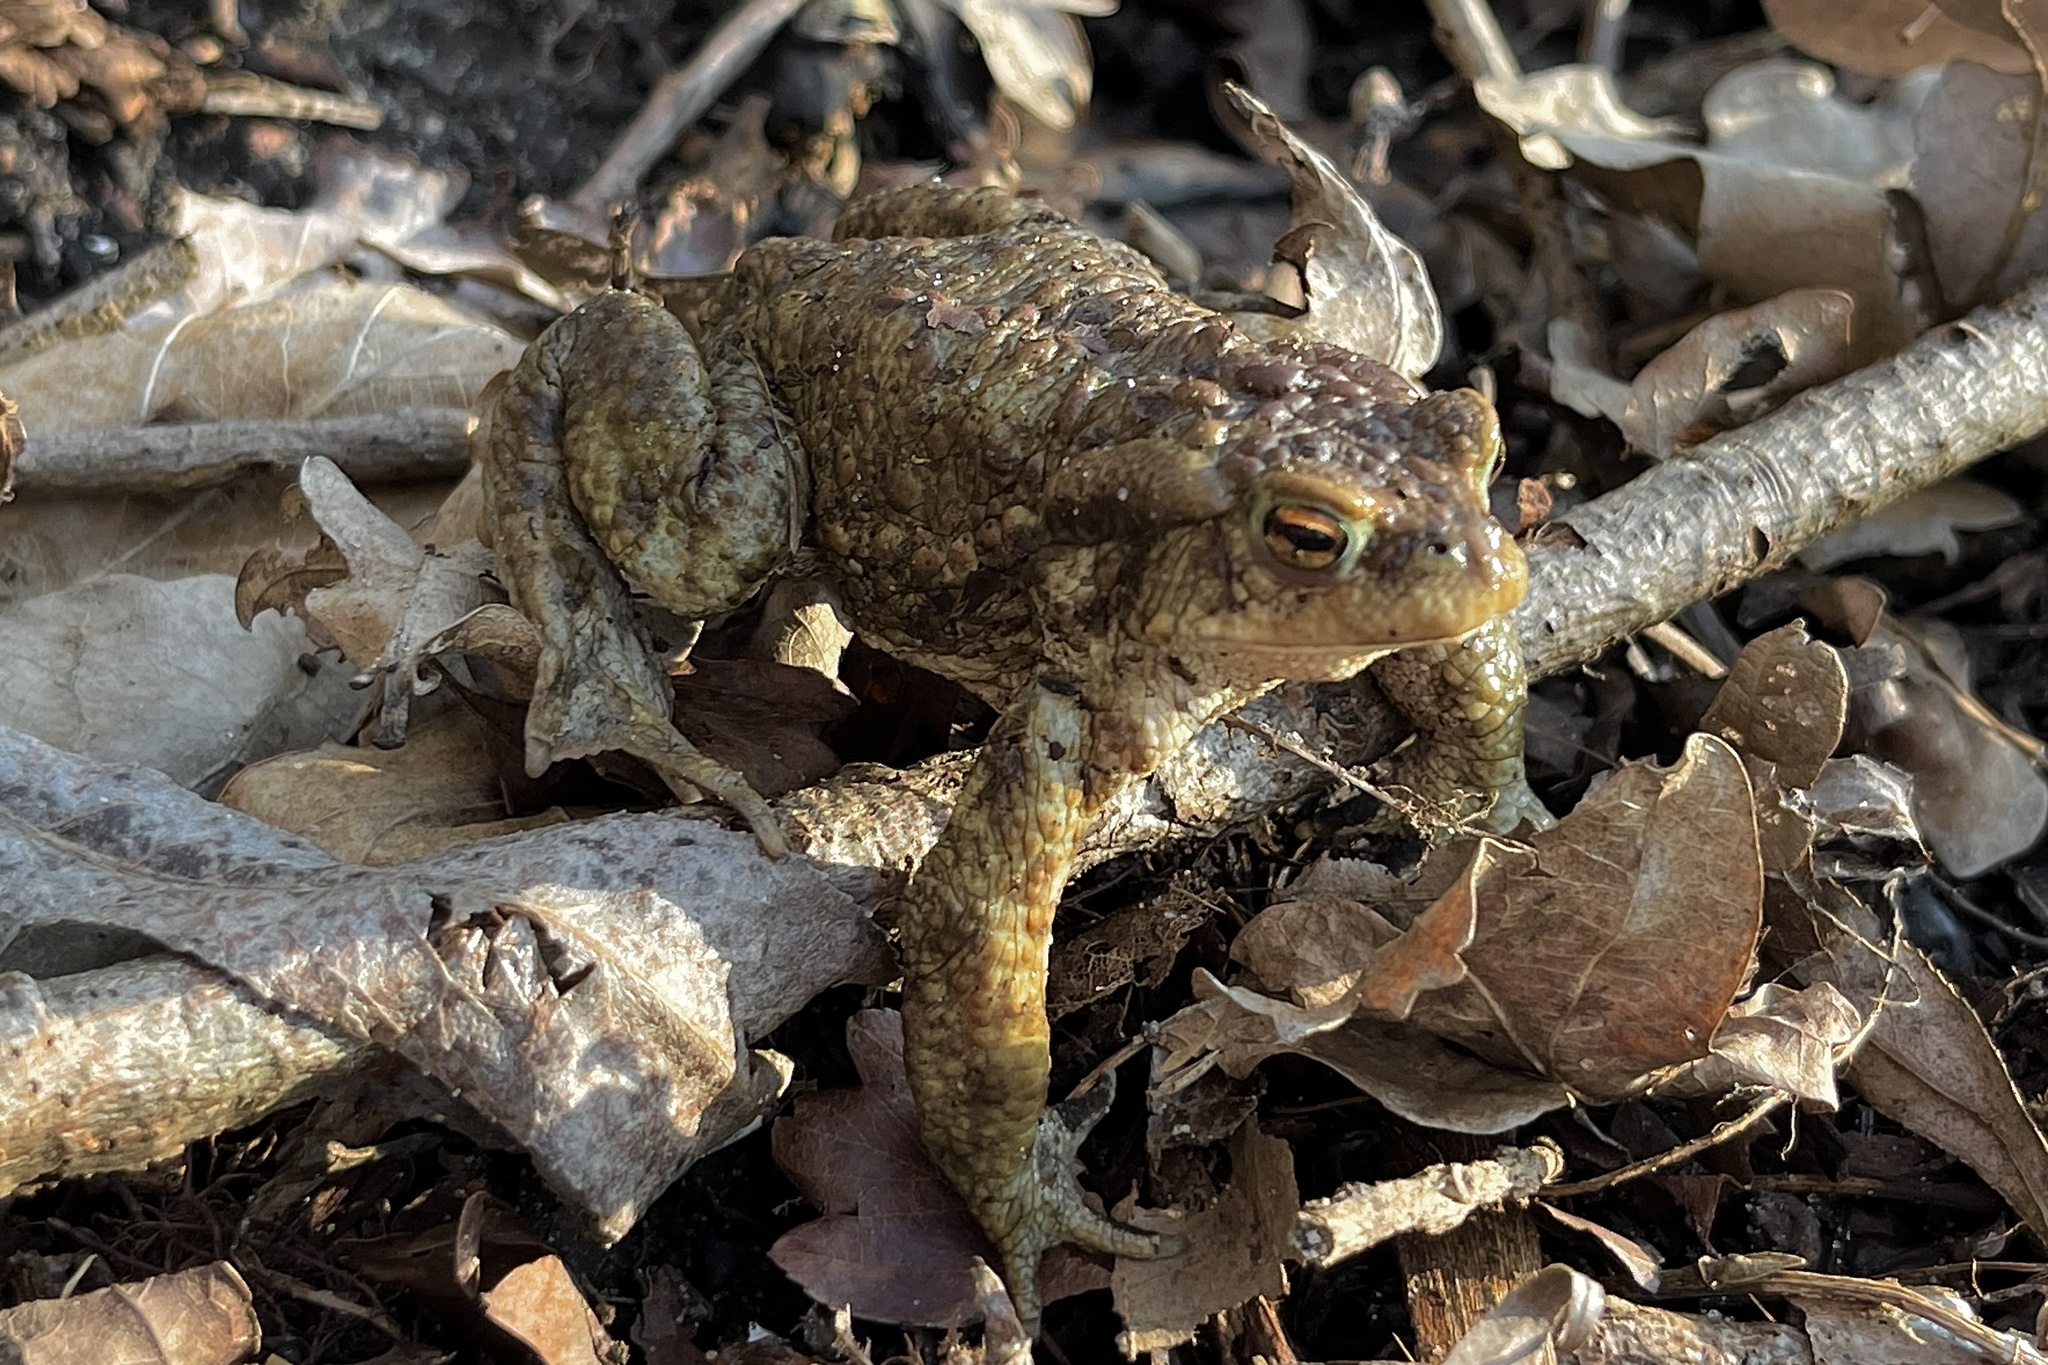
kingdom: Animalia
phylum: Chordata
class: Amphibia
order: Anura
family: Bufonidae
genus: Bufo
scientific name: Bufo bufo
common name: Common toad
